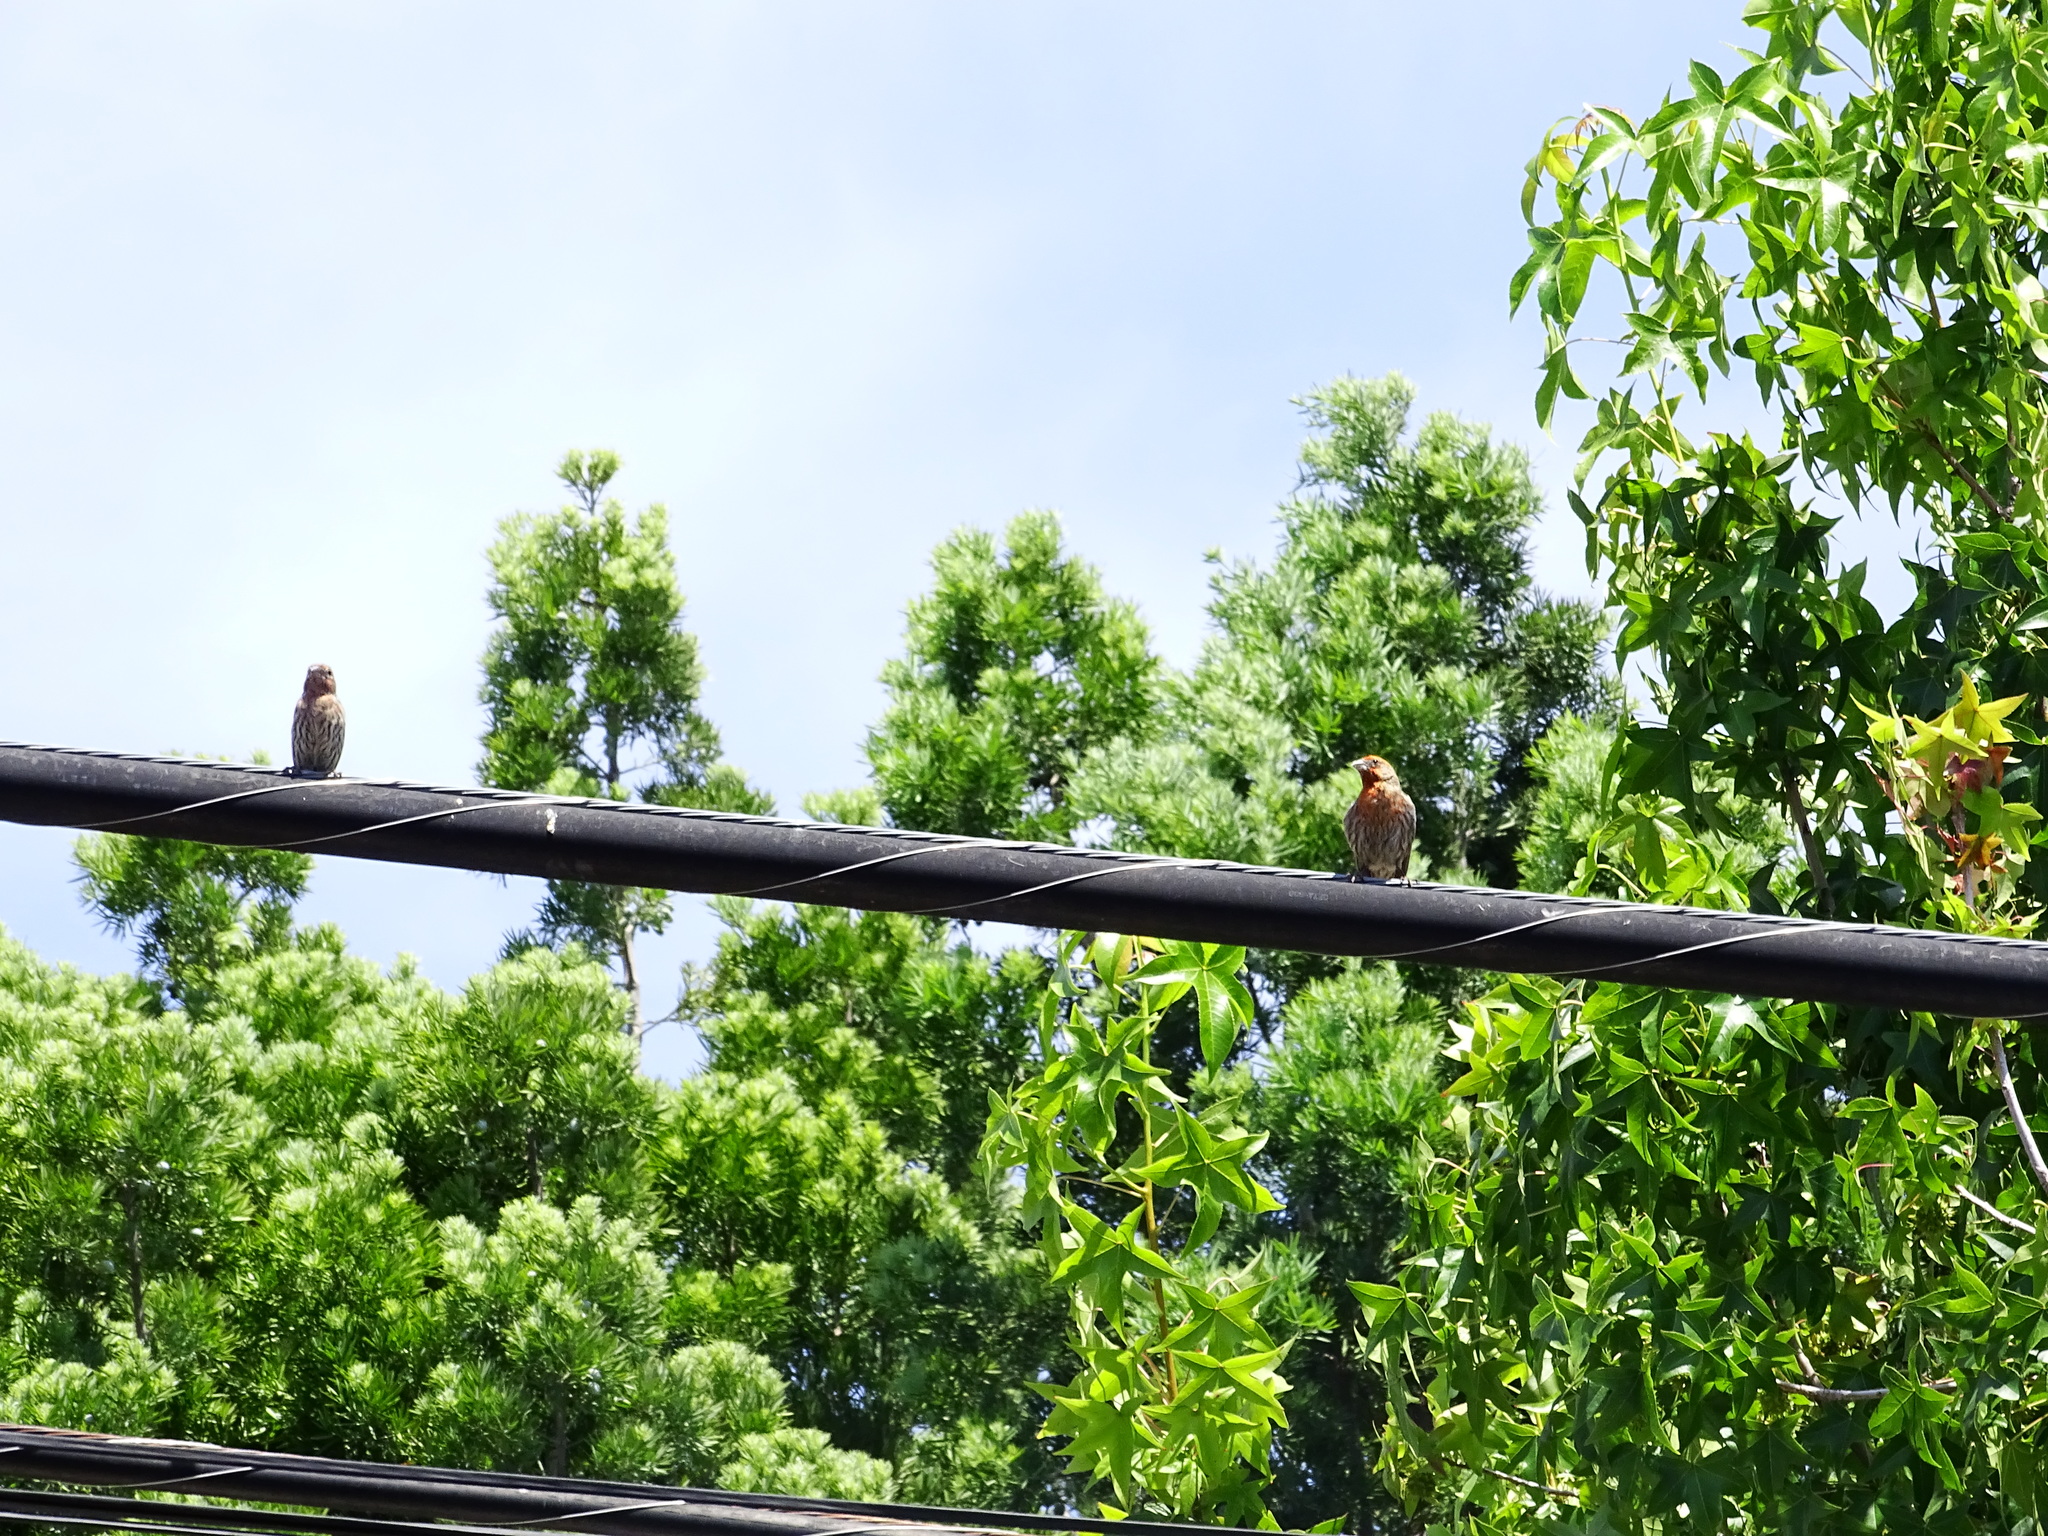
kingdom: Animalia
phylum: Chordata
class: Aves
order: Passeriformes
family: Fringillidae
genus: Haemorhous
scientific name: Haemorhous mexicanus
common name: House finch
